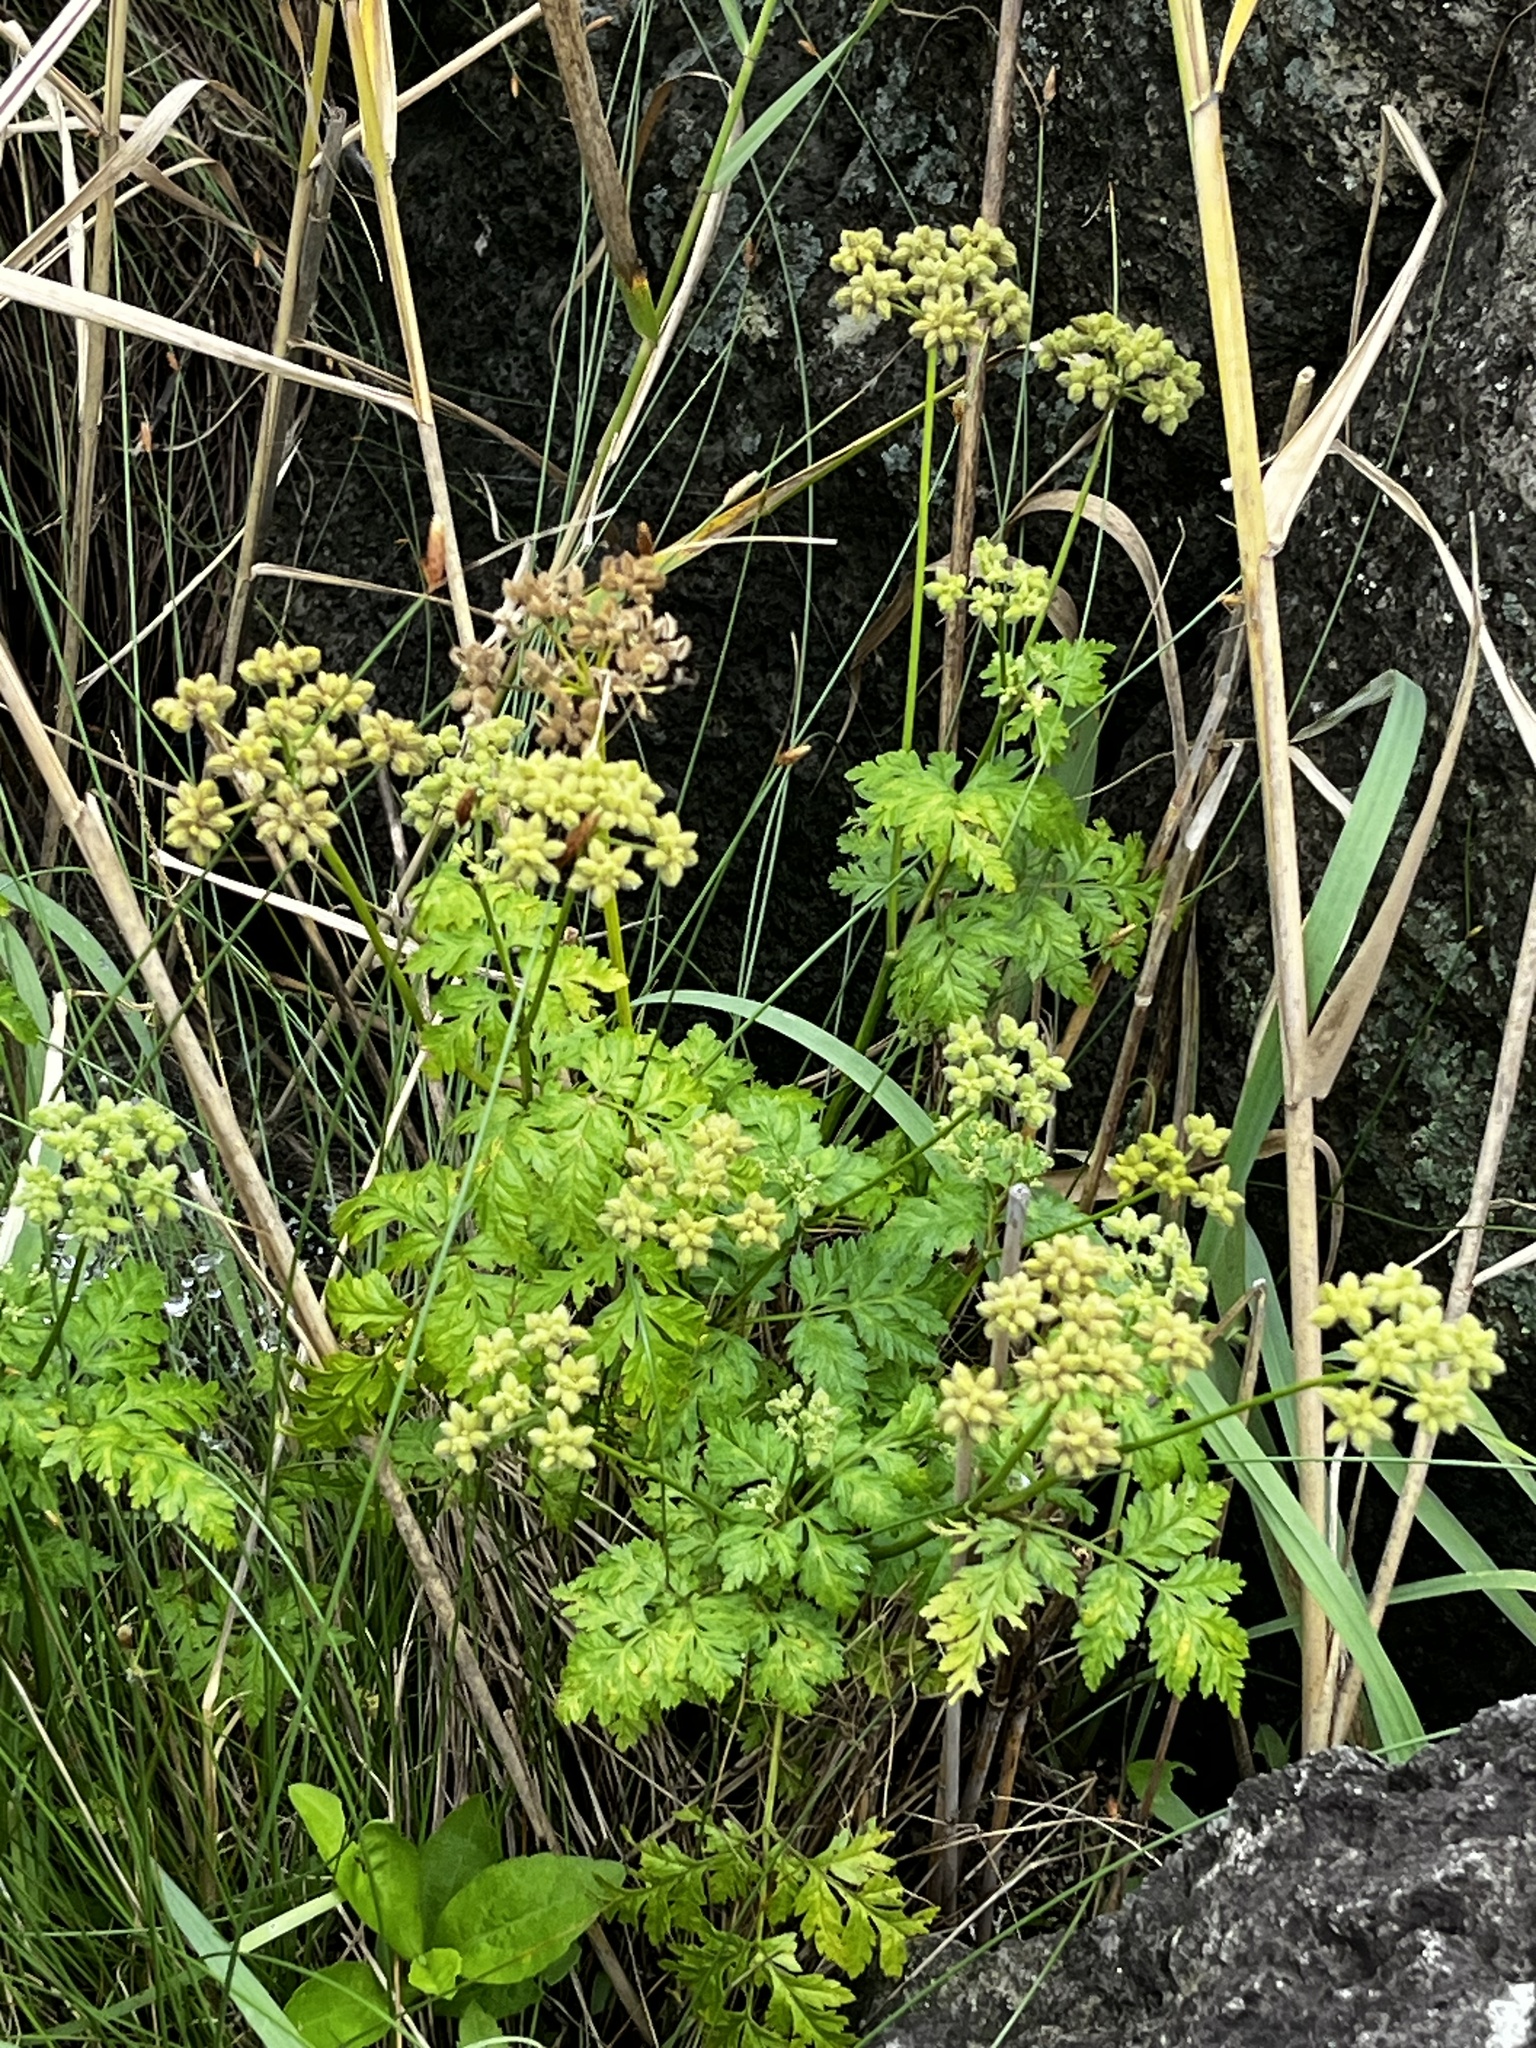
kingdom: Plantae
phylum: Tracheophyta
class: Magnoliopsida
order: Apiales
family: Apiaceae
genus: Torilis
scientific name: Torilis japonica
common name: Upright hedge-parsley
